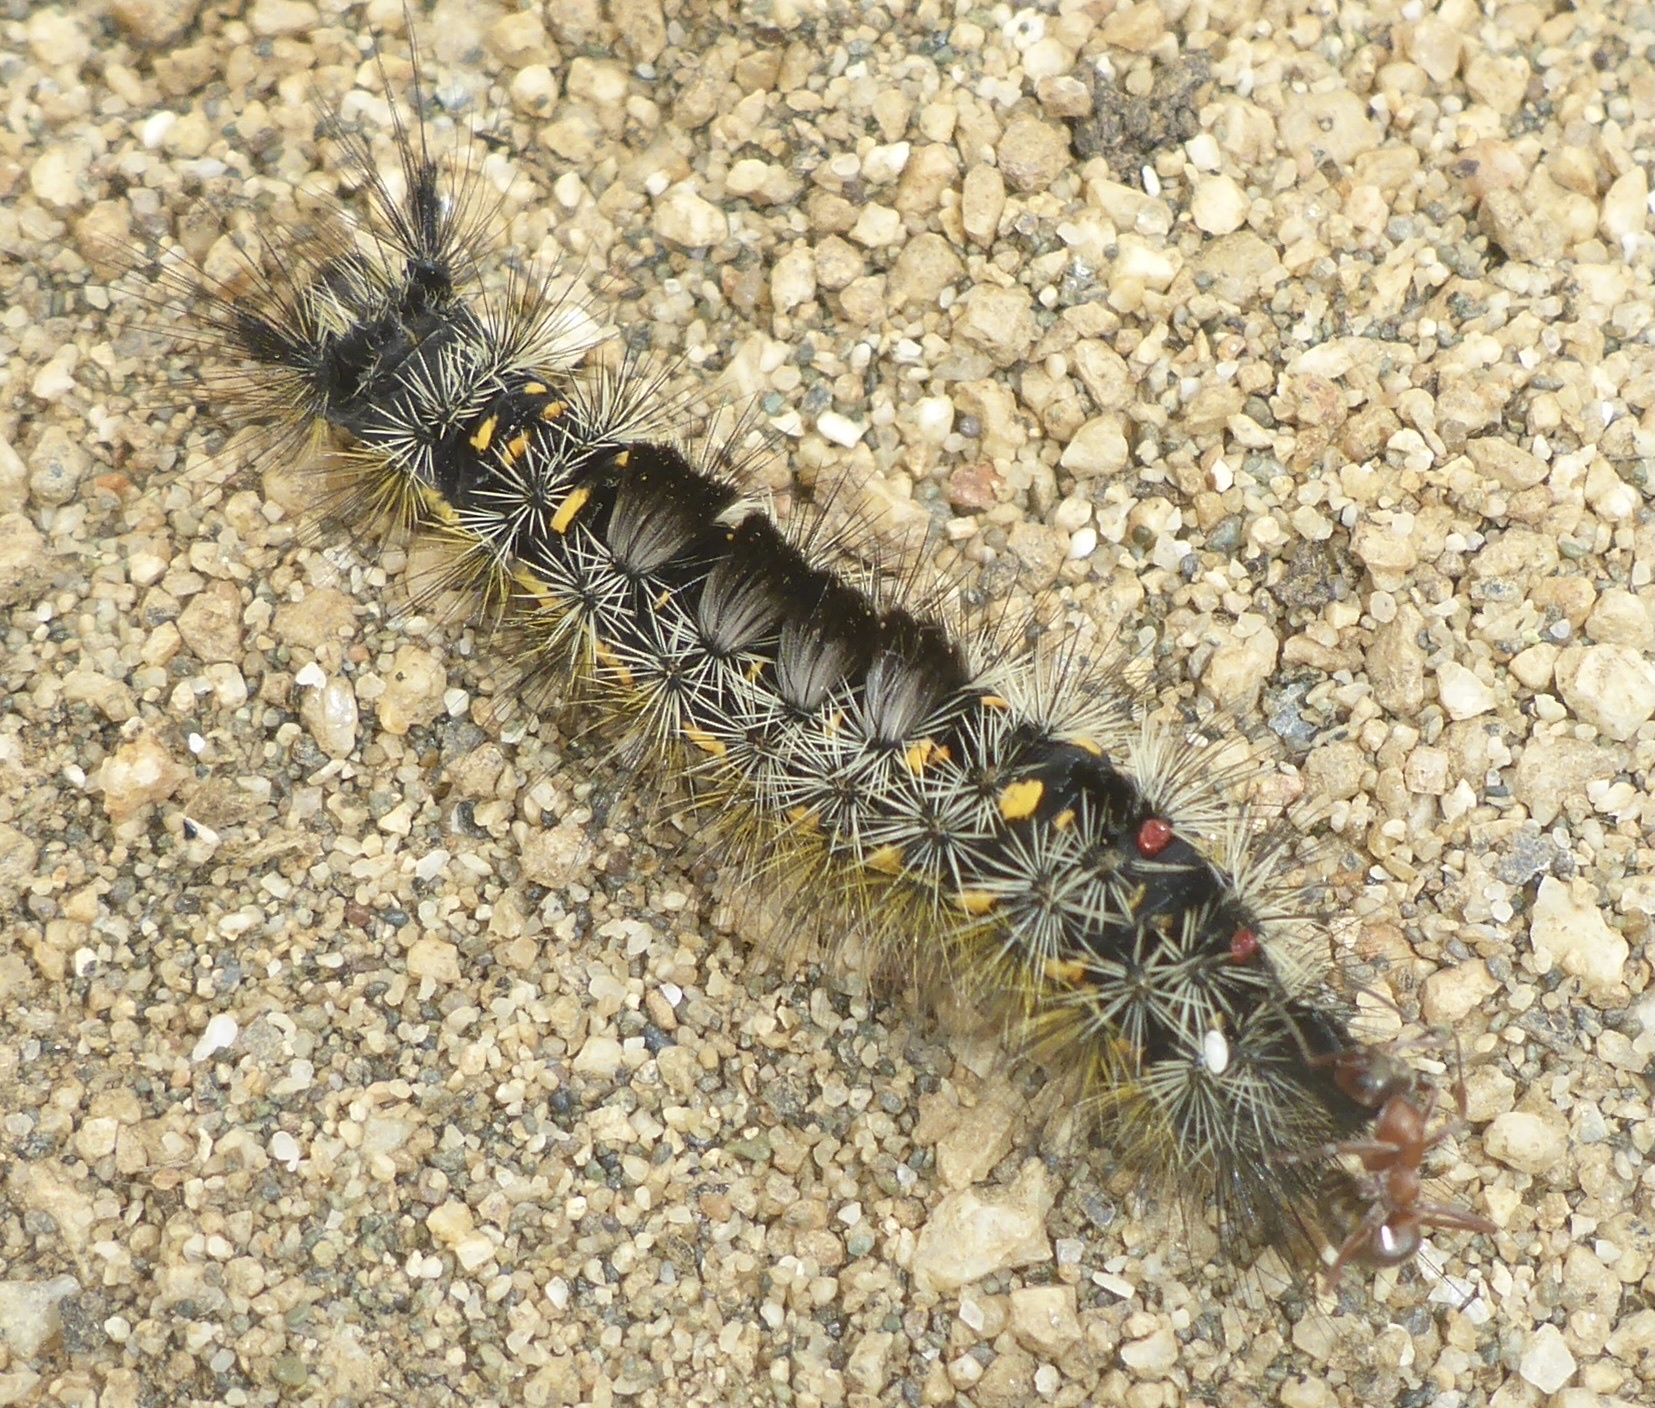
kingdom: Animalia
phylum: Arthropoda
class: Insecta
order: Lepidoptera
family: Erebidae
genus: Orgyia
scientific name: Orgyia vetusta
